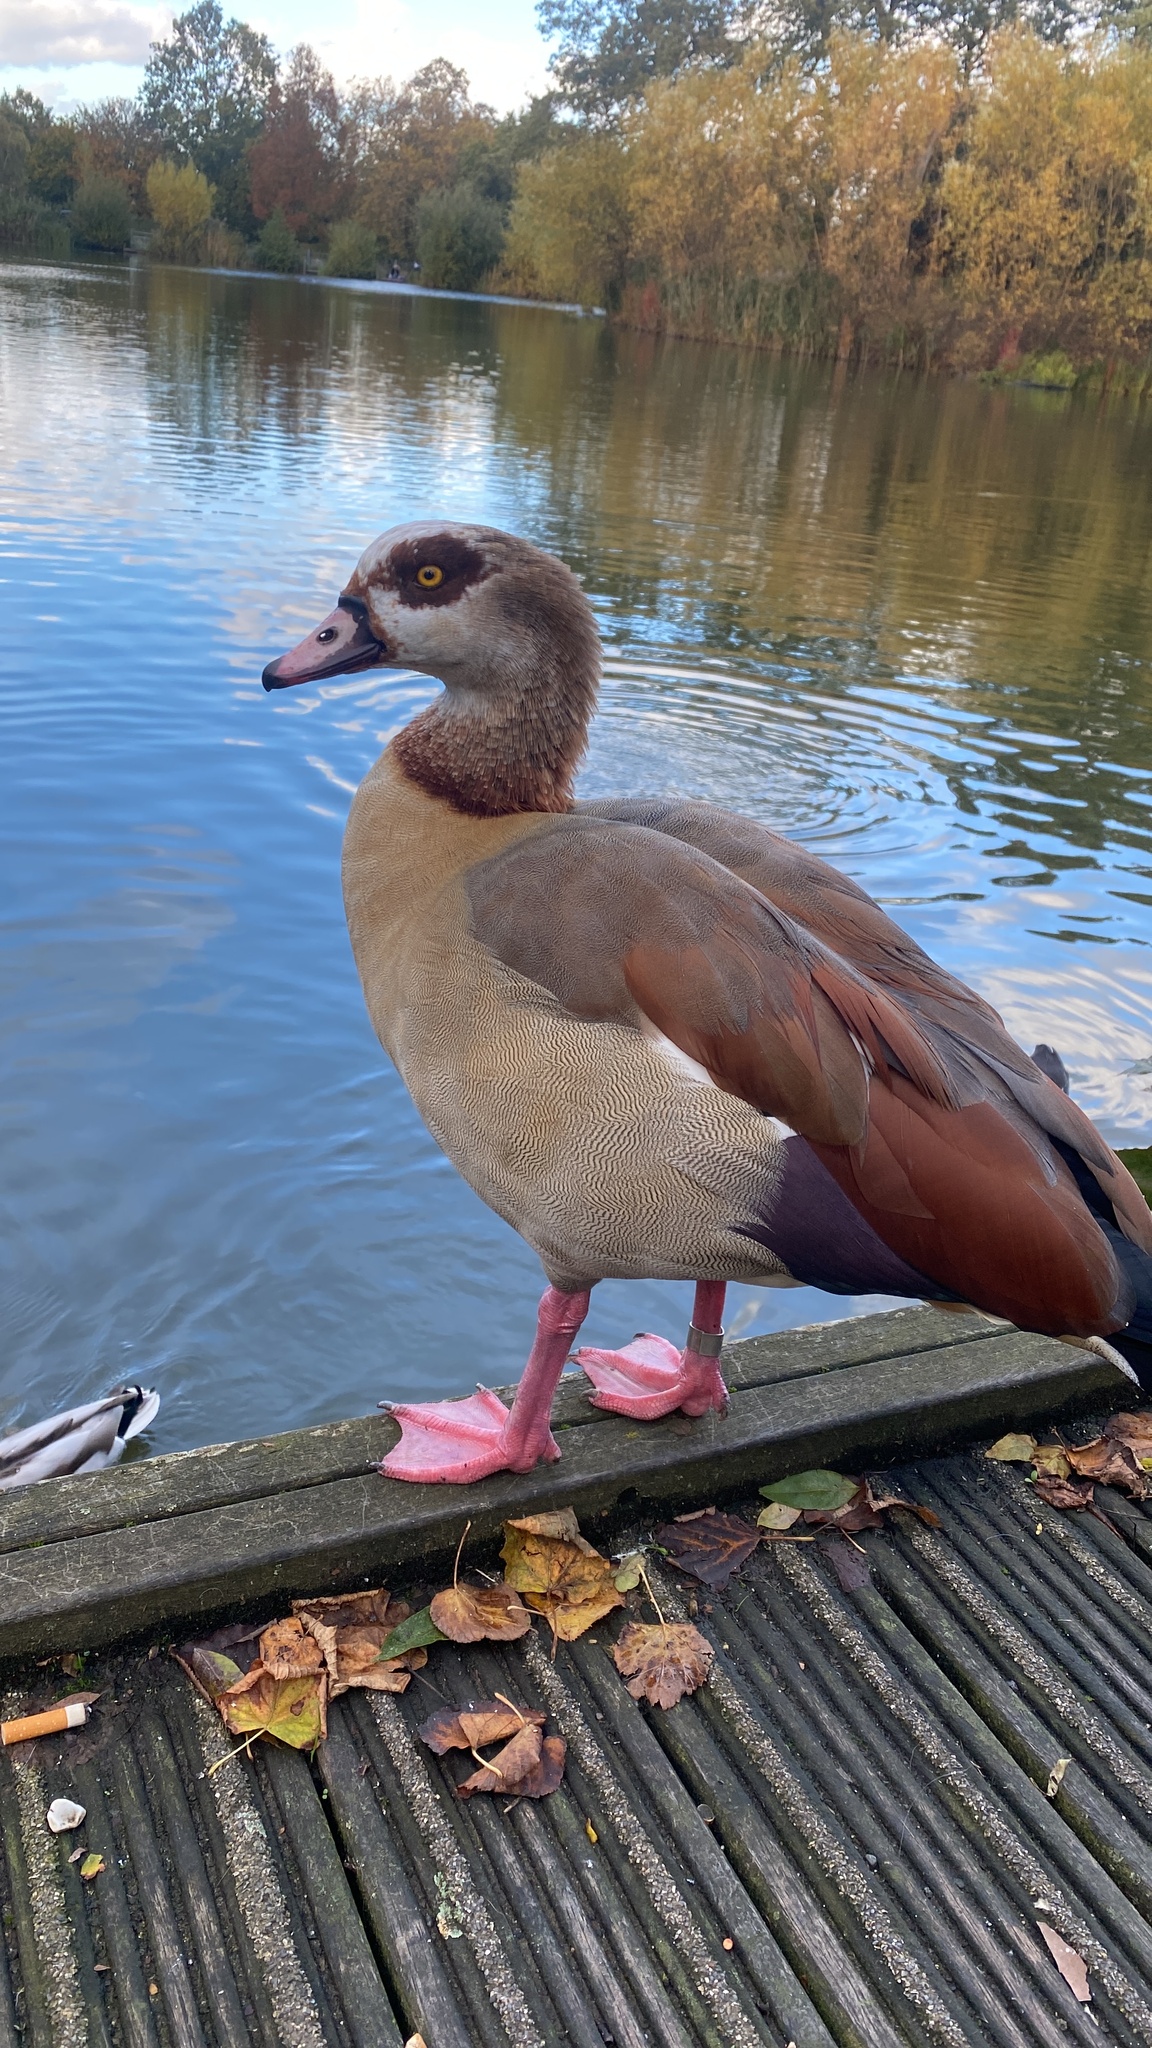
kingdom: Animalia
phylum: Chordata
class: Aves
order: Anseriformes
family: Anatidae
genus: Alopochen
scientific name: Alopochen aegyptiaca
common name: Egyptian goose
